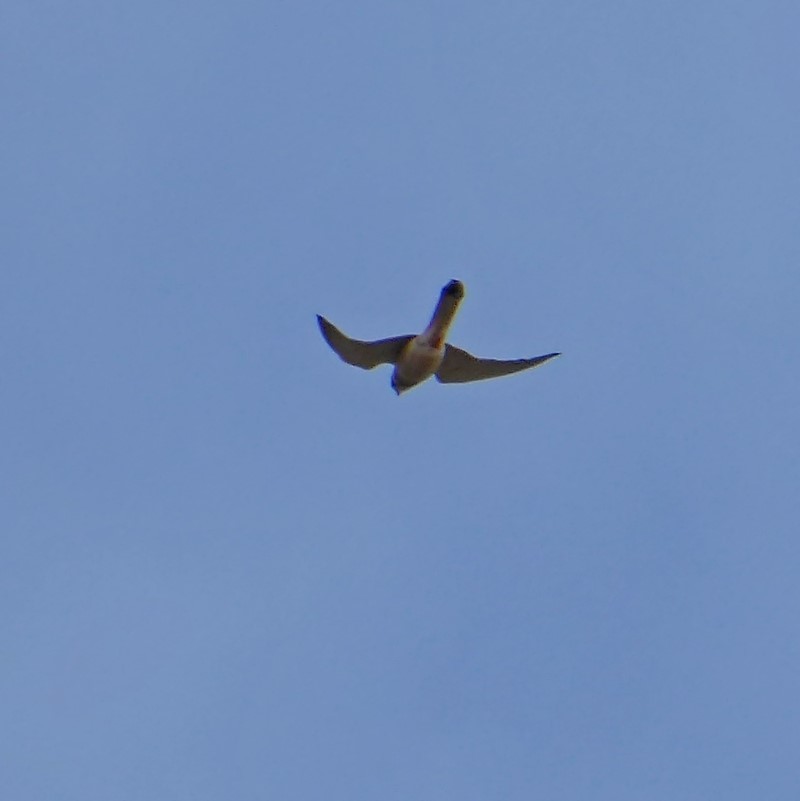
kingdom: Animalia
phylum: Chordata
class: Aves
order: Falconiformes
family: Falconidae
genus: Falco
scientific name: Falco cenchroides
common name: Nankeen kestrel
